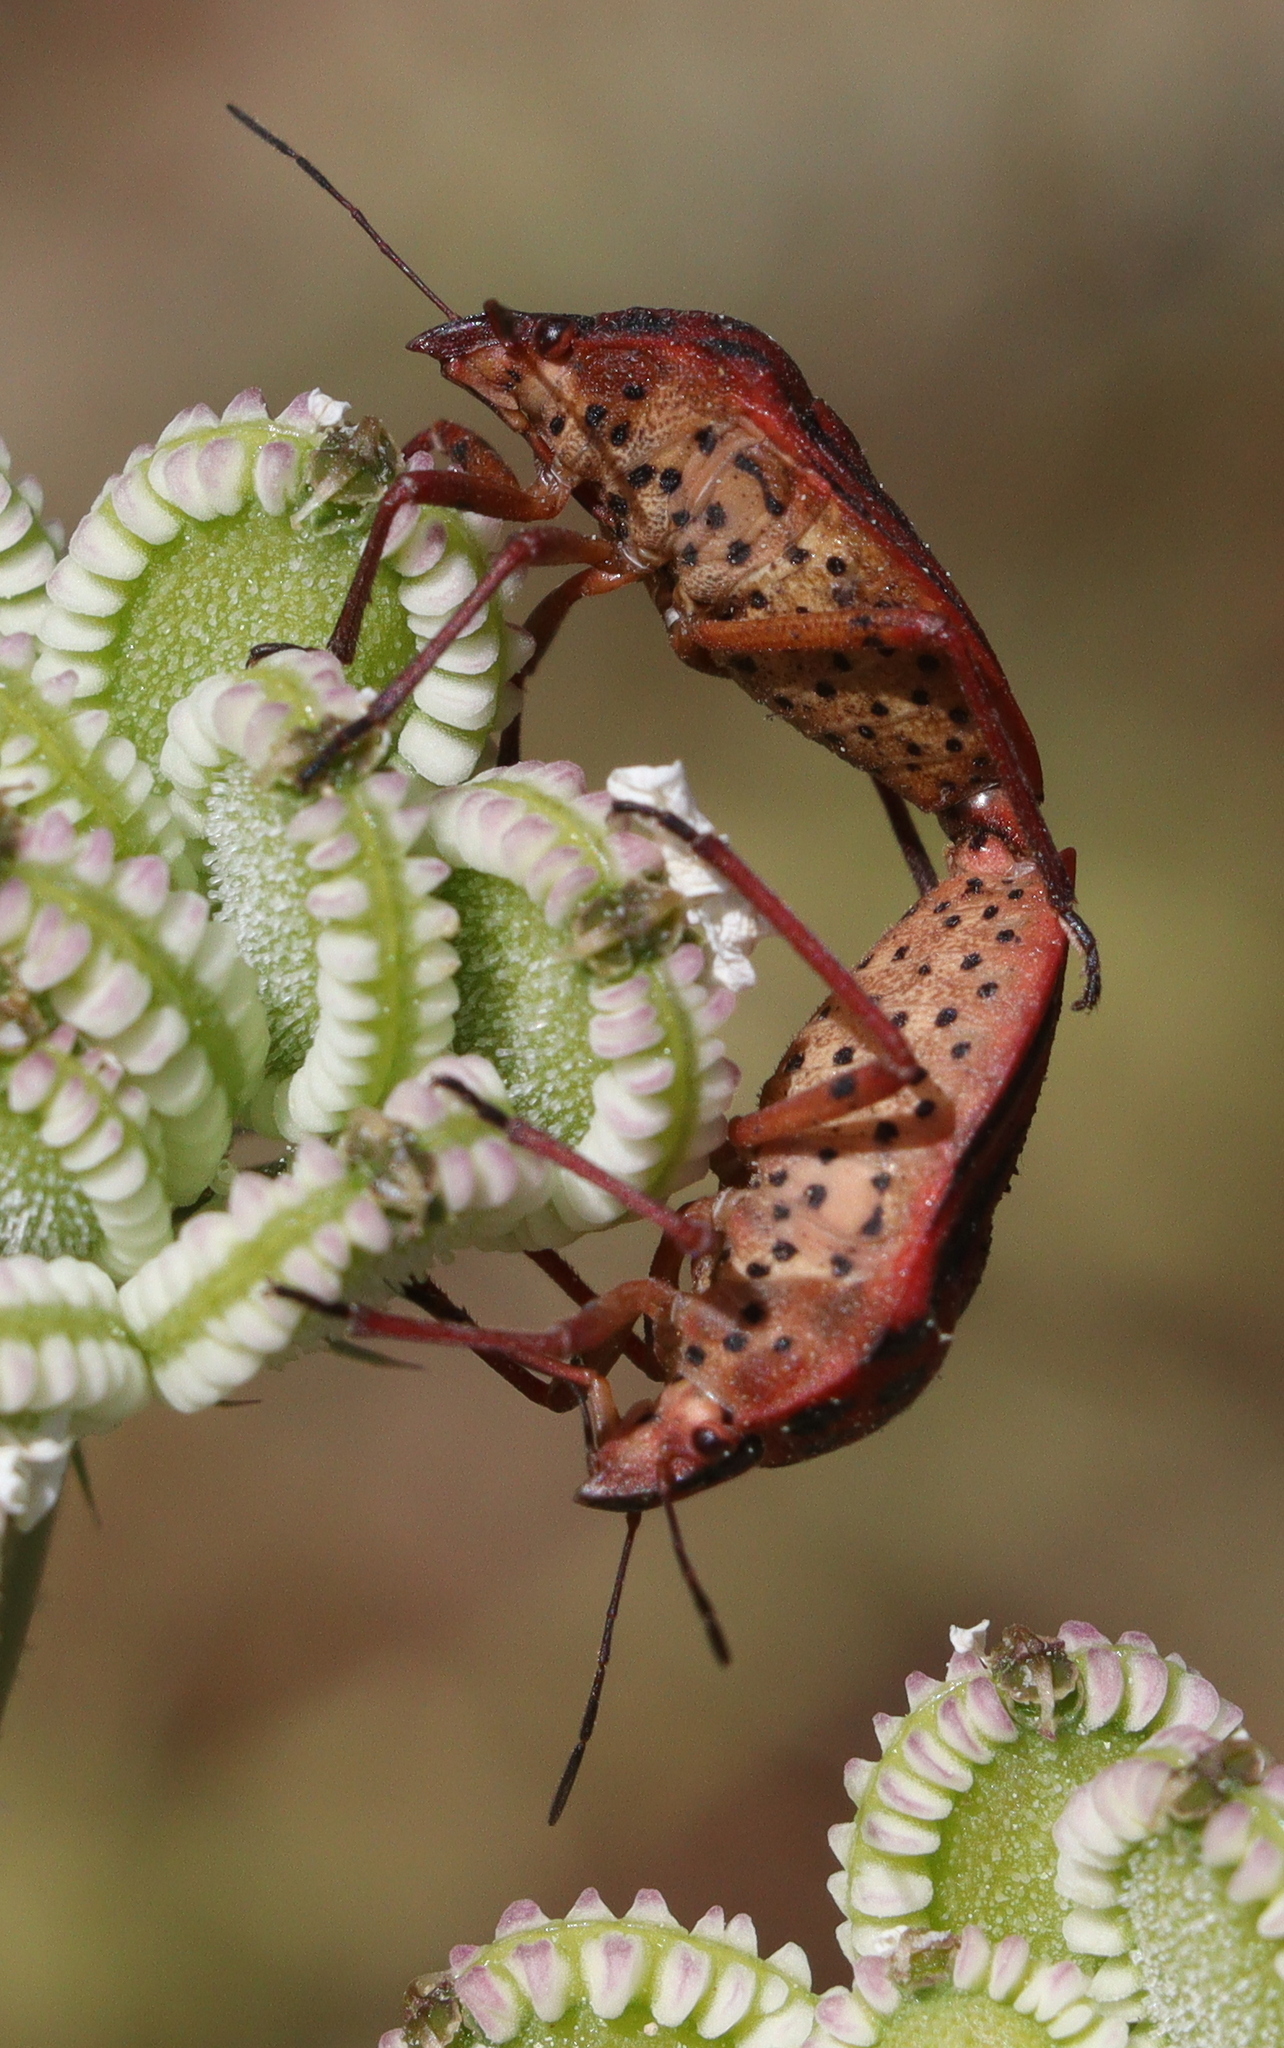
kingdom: Animalia
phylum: Arthropoda
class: Insecta
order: Hemiptera
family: Pentatomidae
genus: Graphosoma
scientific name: Graphosoma semipunctatum
